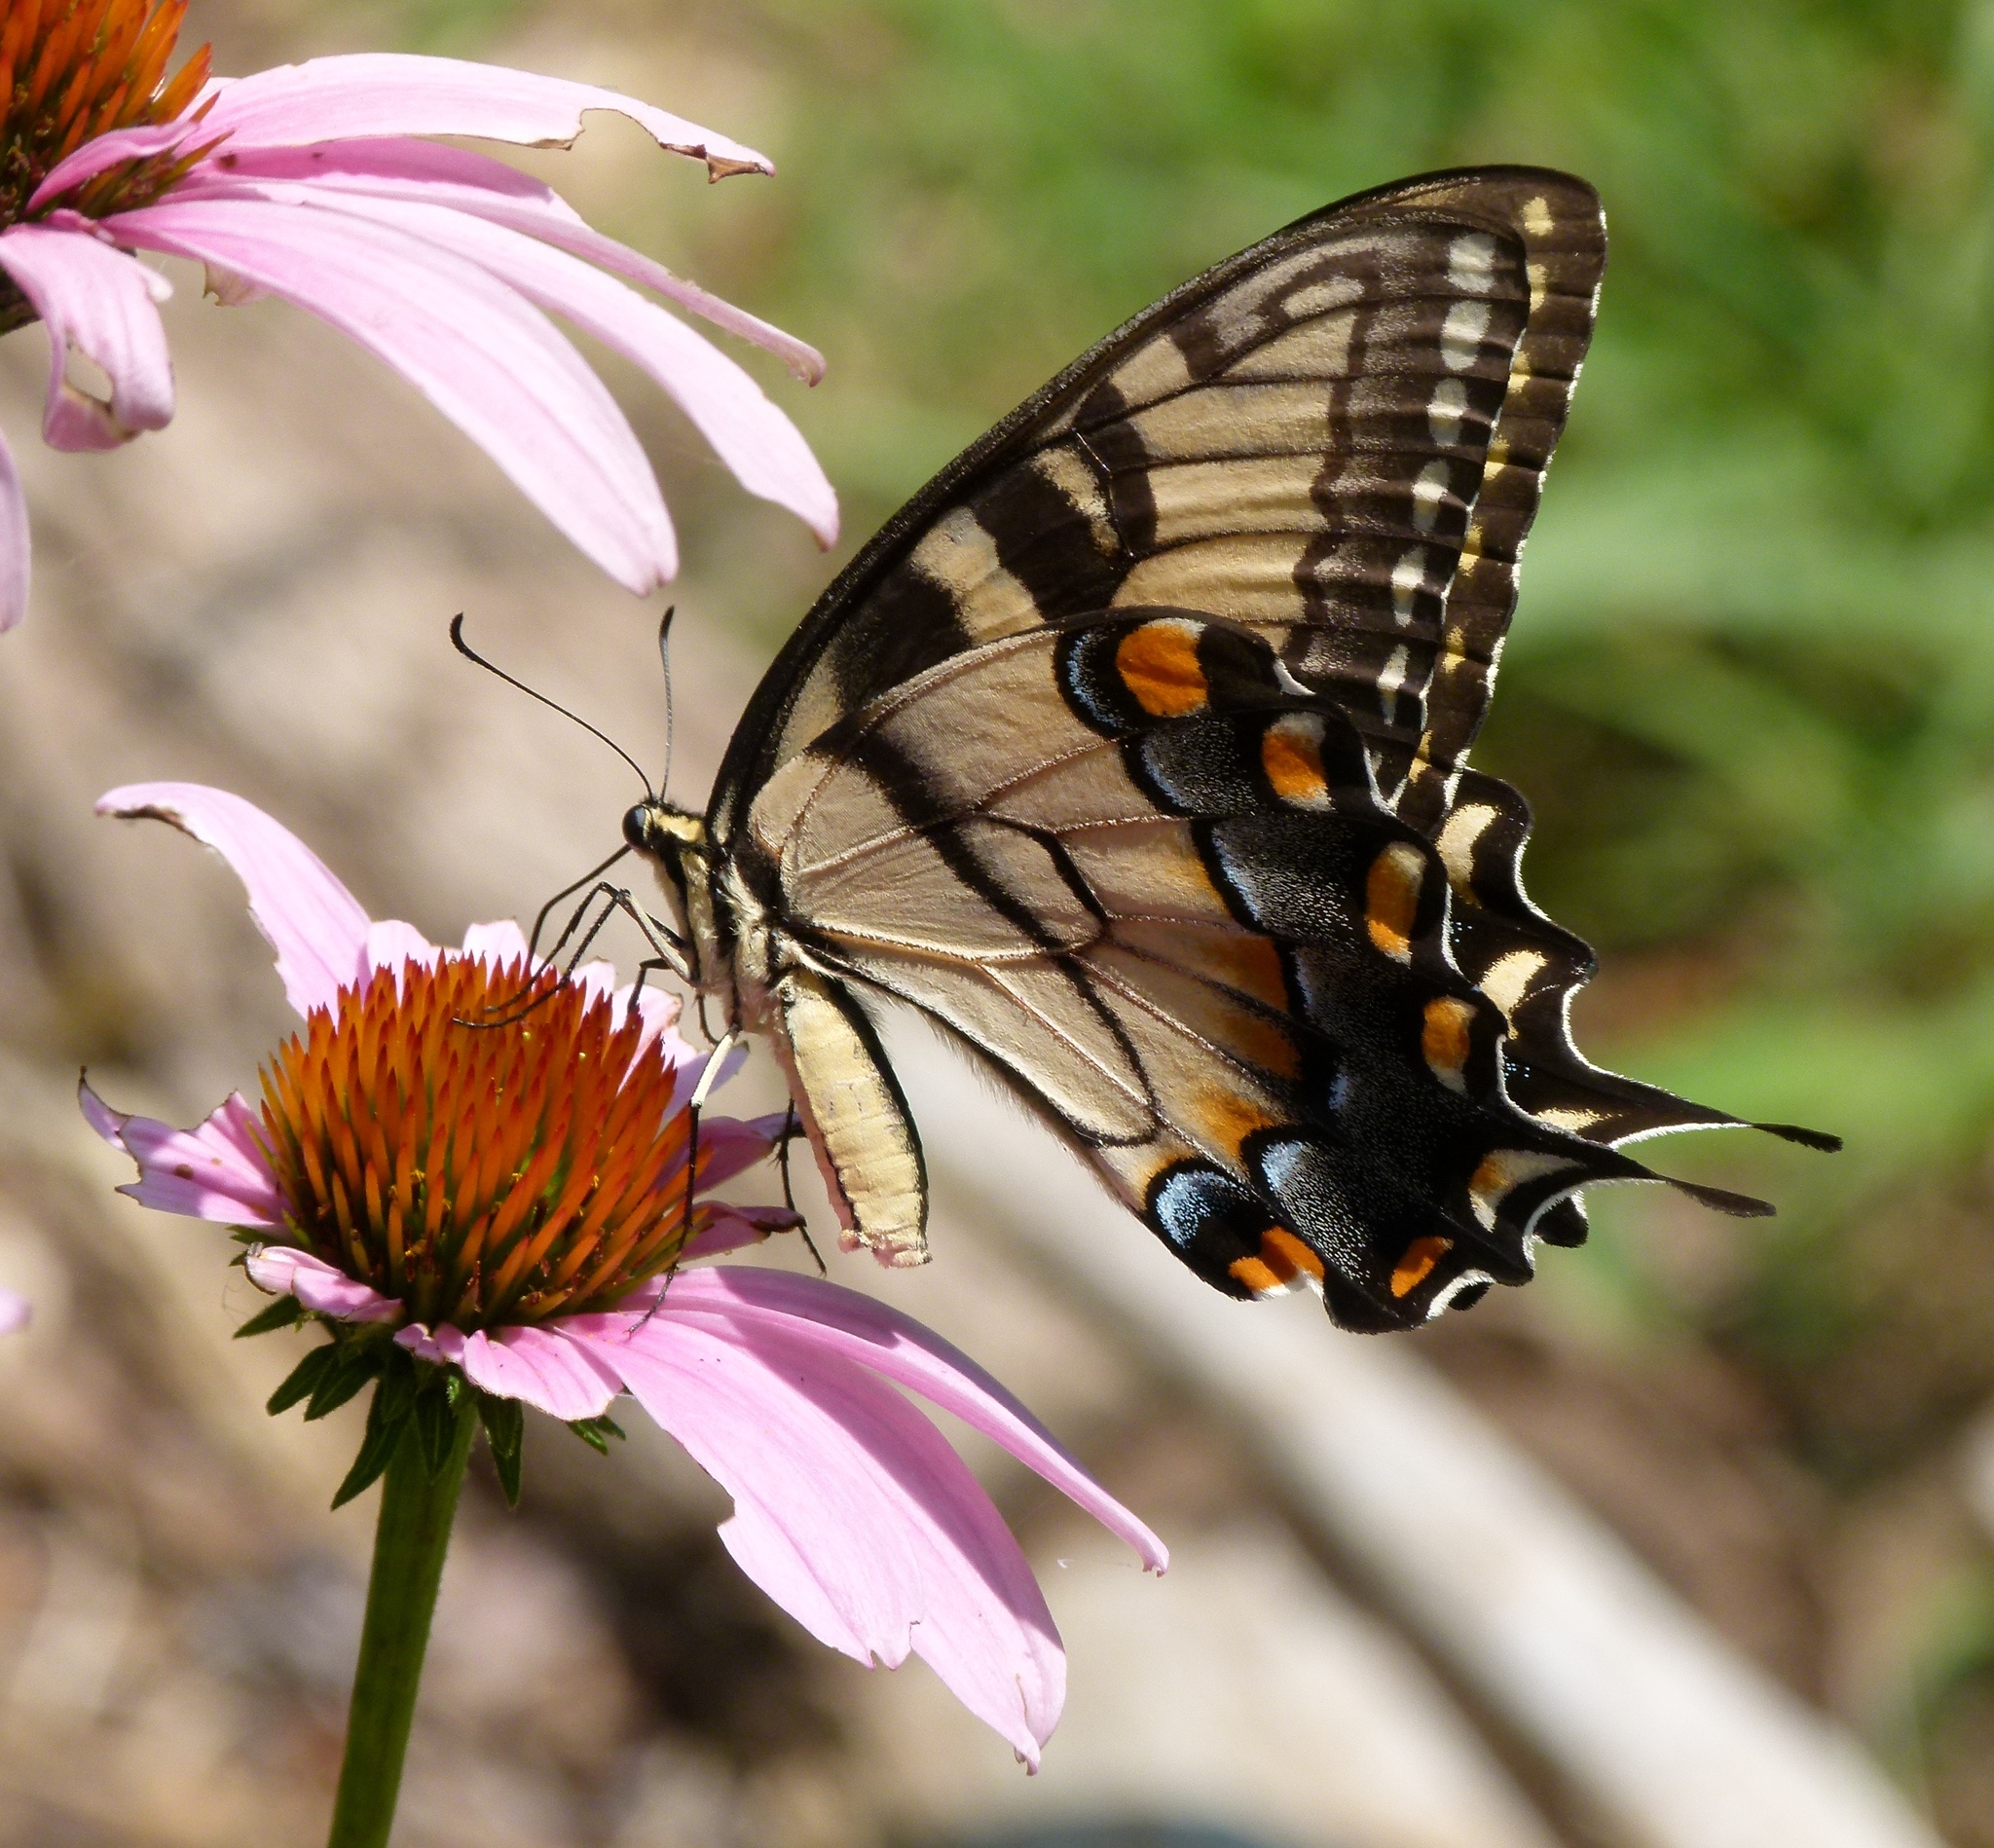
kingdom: Animalia
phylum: Arthropoda
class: Insecta
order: Lepidoptera
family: Papilionidae
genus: Papilio
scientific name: Papilio glaucus
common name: Tiger swallowtail
